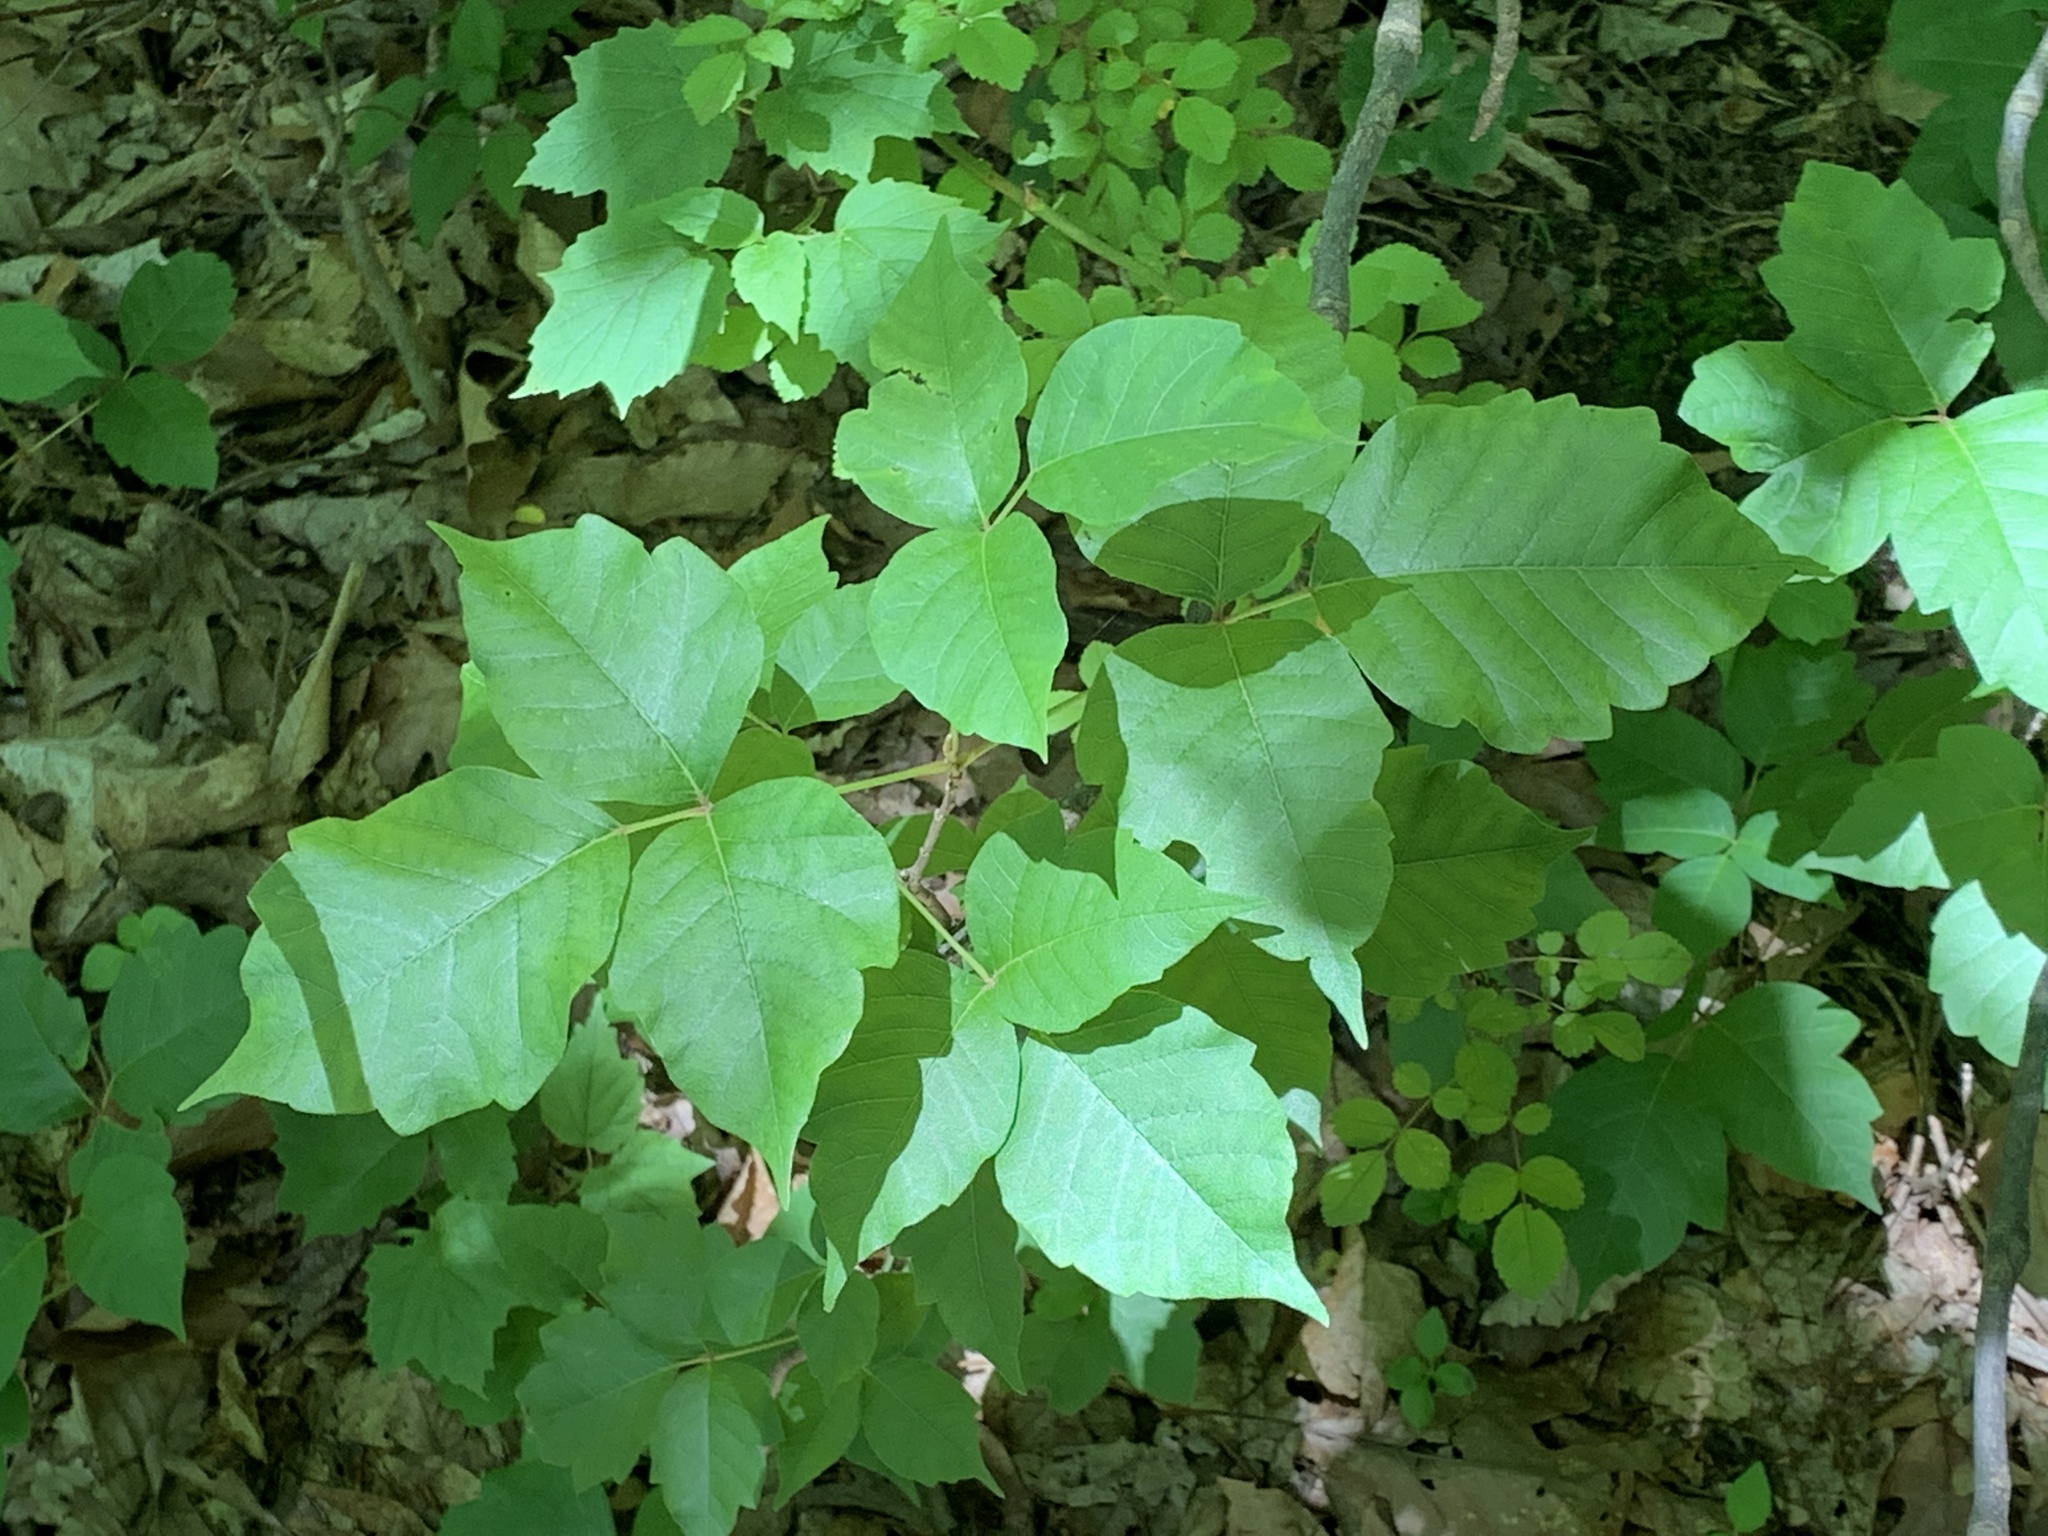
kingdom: Plantae
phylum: Tracheophyta
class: Magnoliopsida
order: Sapindales
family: Anacardiaceae
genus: Toxicodendron
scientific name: Toxicodendron radicans
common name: Poison ivy
